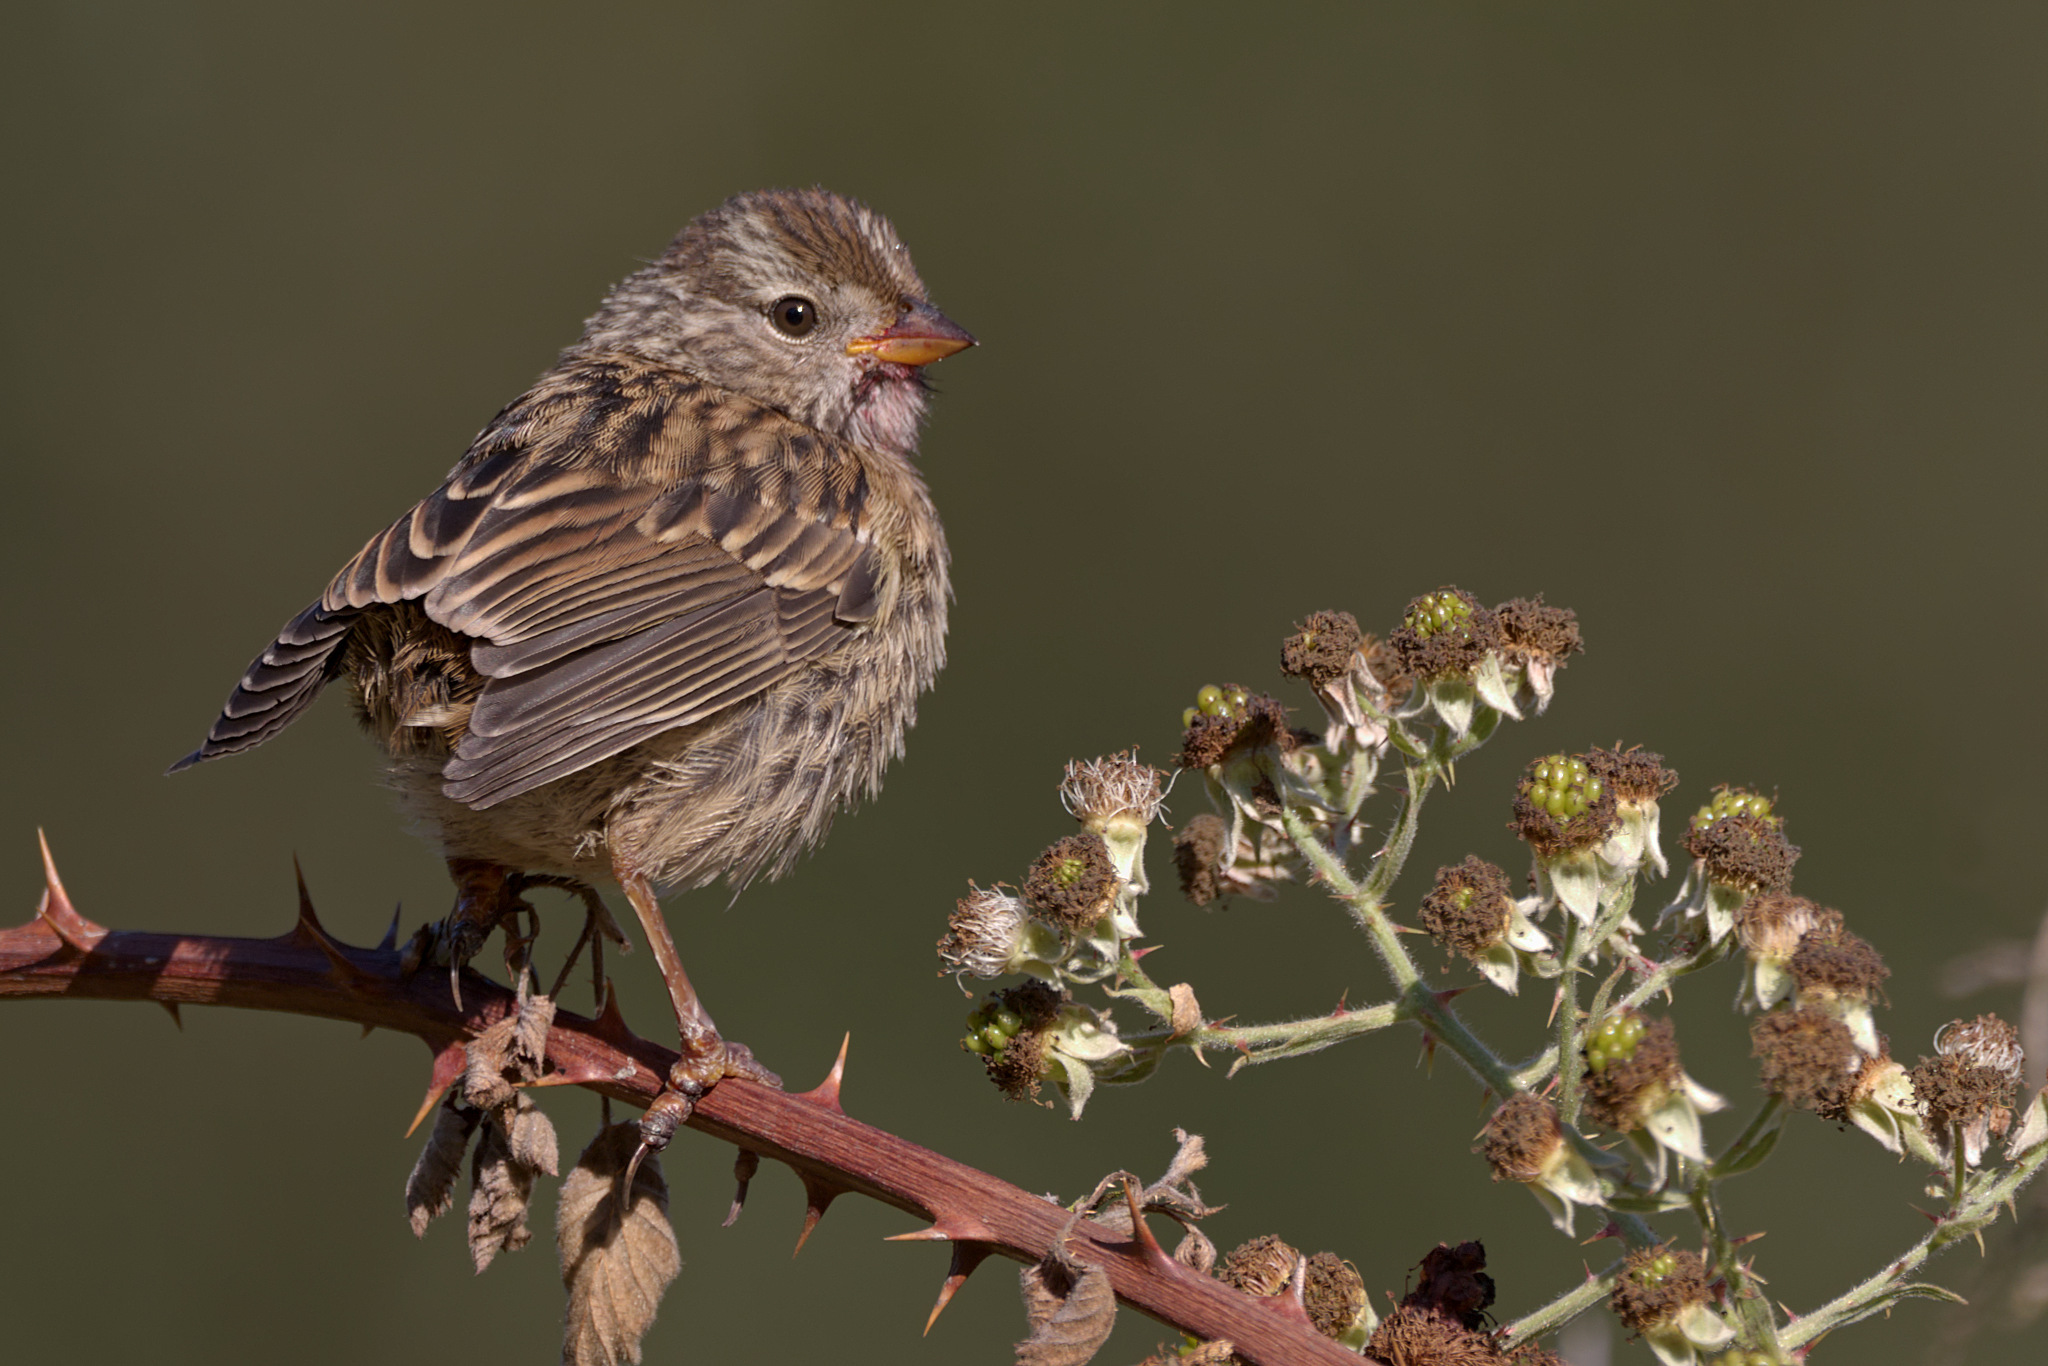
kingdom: Animalia
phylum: Chordata
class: Aves
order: Passeriformes
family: Passerellidae
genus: Zonotrichia
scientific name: Zonotrichia leucophrys
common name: White-crowned sparrow
